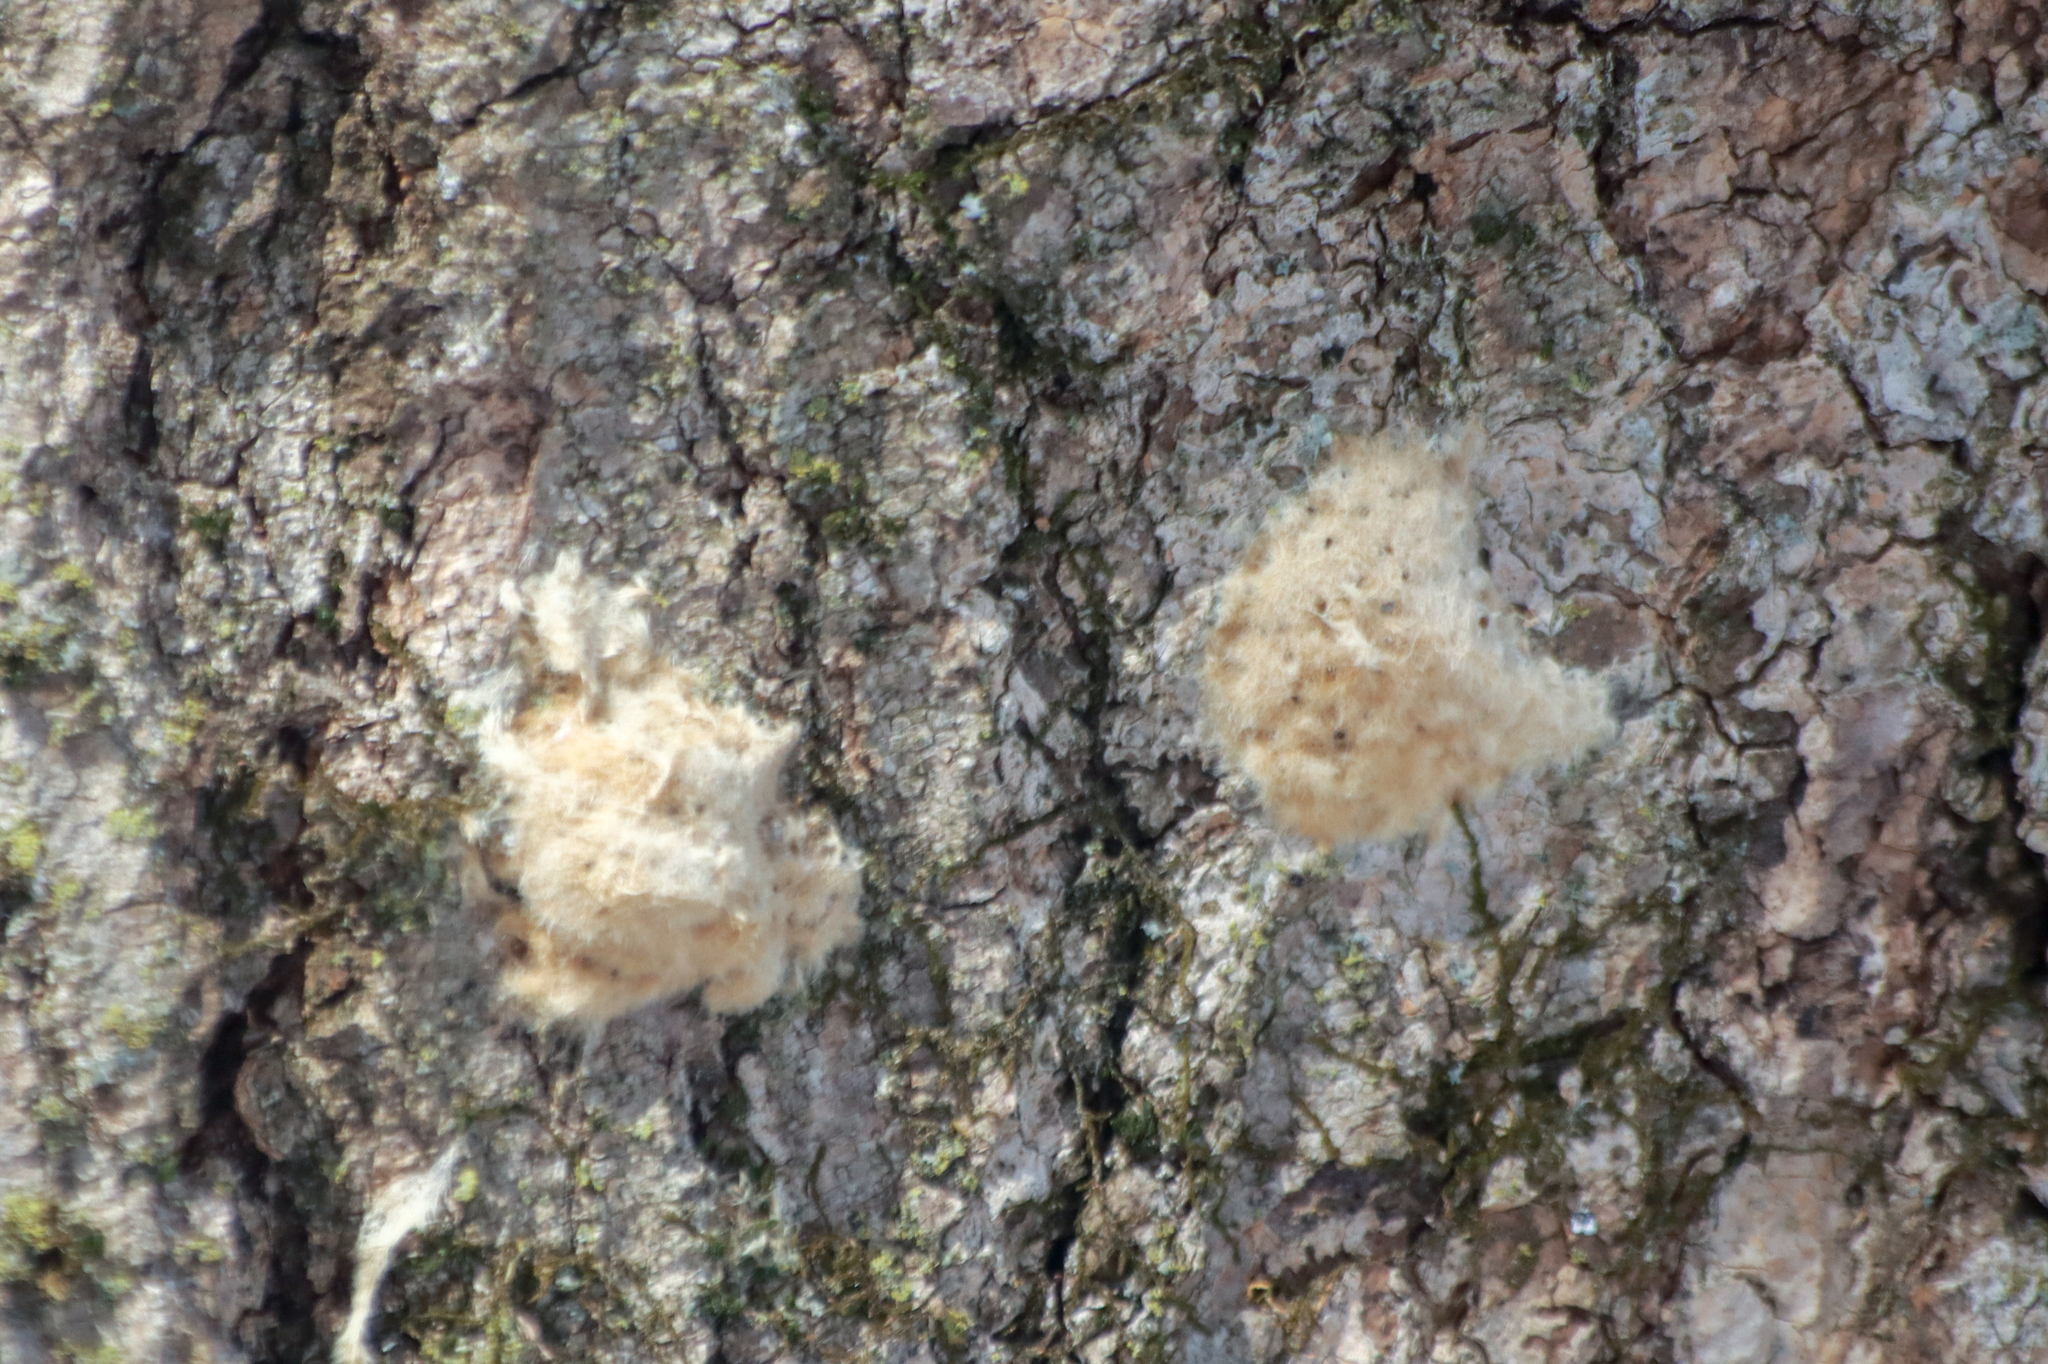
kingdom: Animalia
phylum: Arthropoda
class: Insecta
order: Lepidoptera
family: Erebidae
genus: Lymantria
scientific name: Lymantria dispar
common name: Gypsy moth
